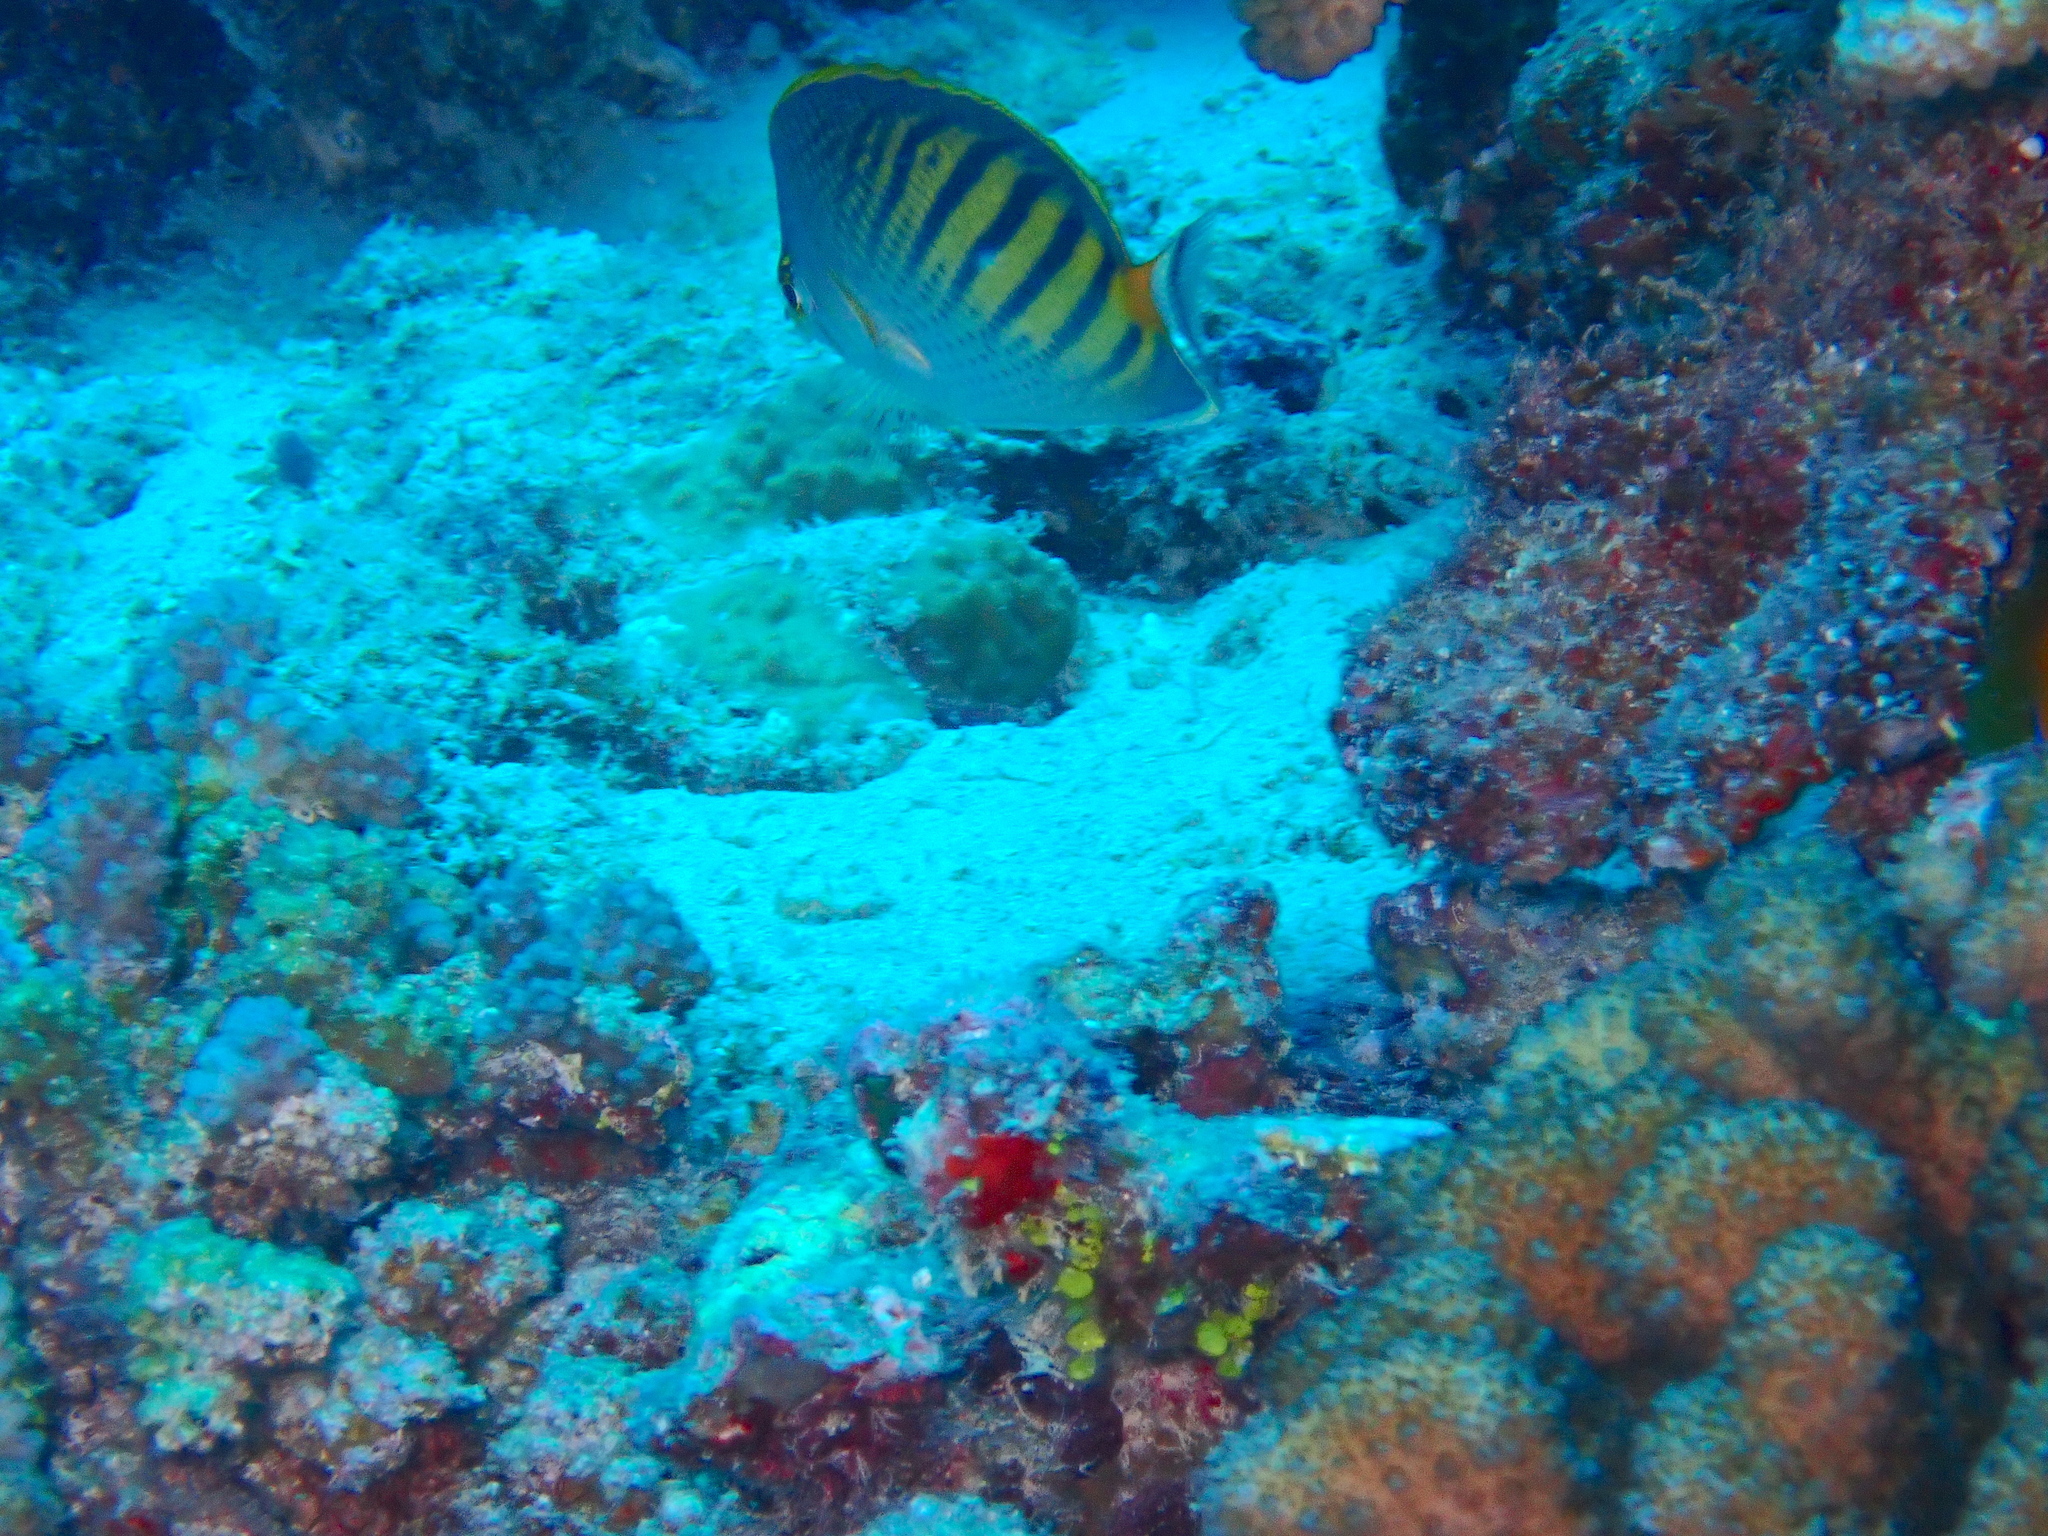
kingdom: Animalia
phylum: Chordata
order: Perciformes
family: Chaetodontidae
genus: Chaetodon
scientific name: Chaetodon pelewensis
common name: Dot-and-dash butterflyfish
